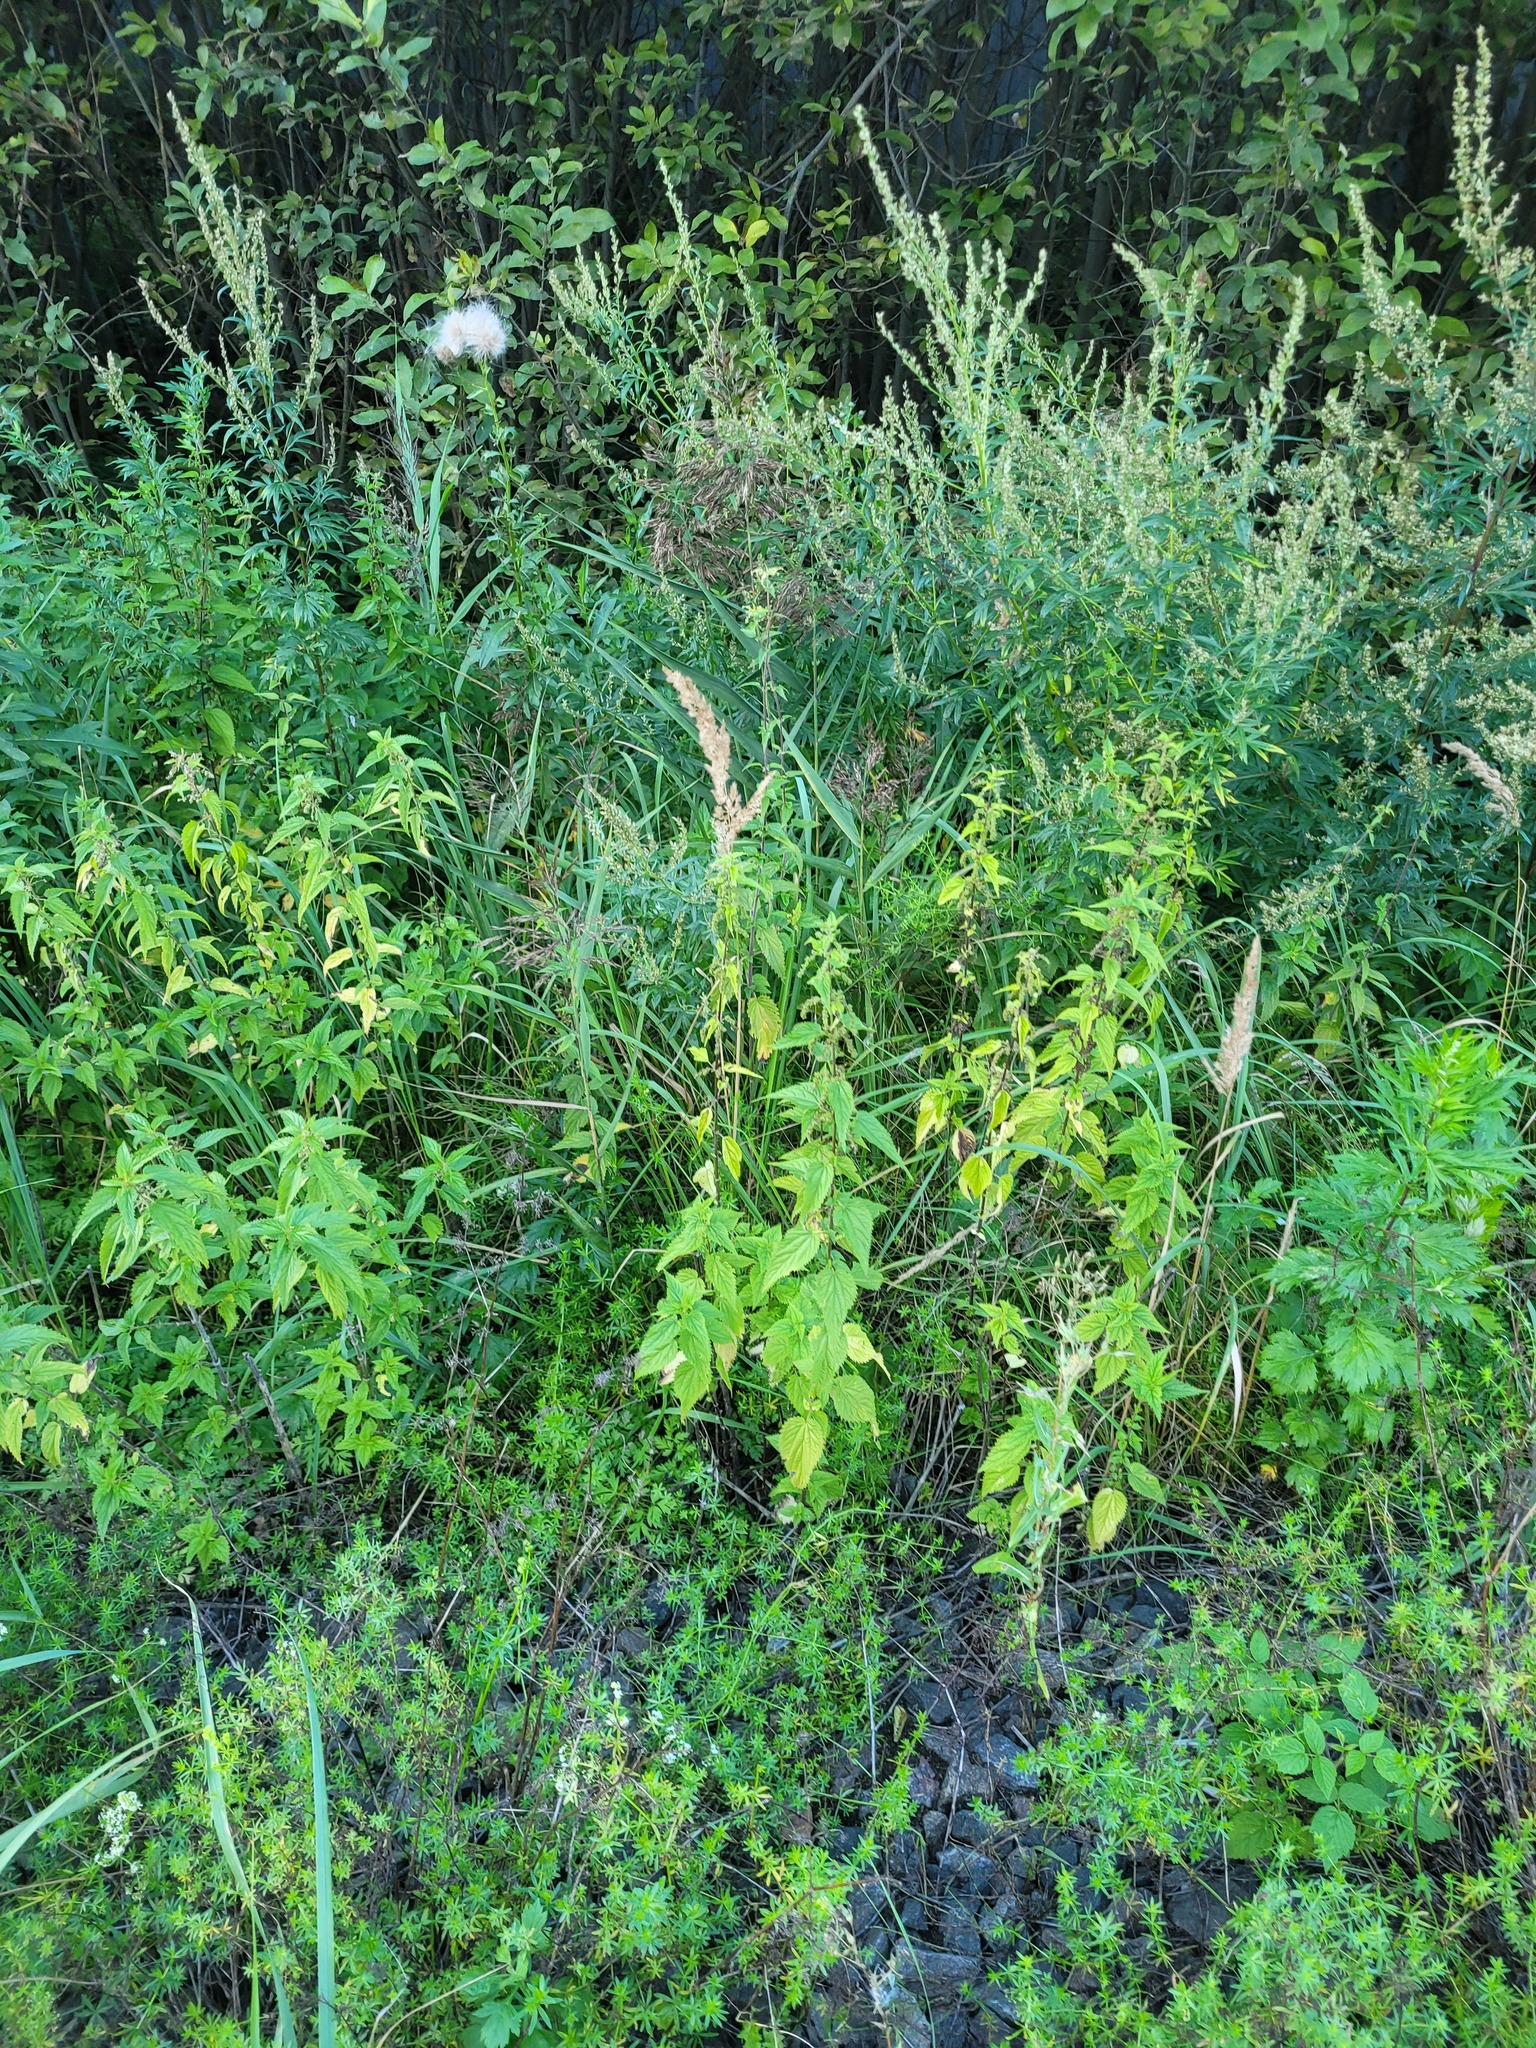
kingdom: Plantae
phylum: Tracheophyta
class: Magnoliopsida
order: Rosales
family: Urticaceae
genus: Urtica
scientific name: Urtica dioica
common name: Common nettle
